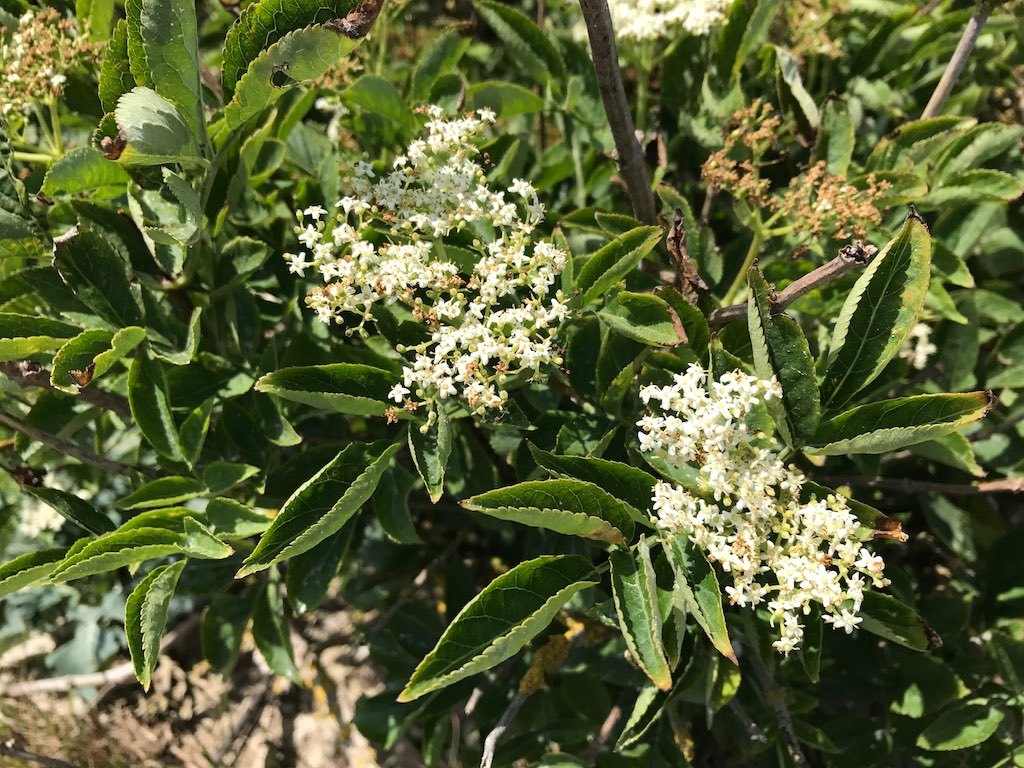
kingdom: Plantae
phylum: Tracheophyta
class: Magnoliopsida
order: Dipsacales
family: Viburnaceae
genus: Sambucus
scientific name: Sambucus nigra
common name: Elder
